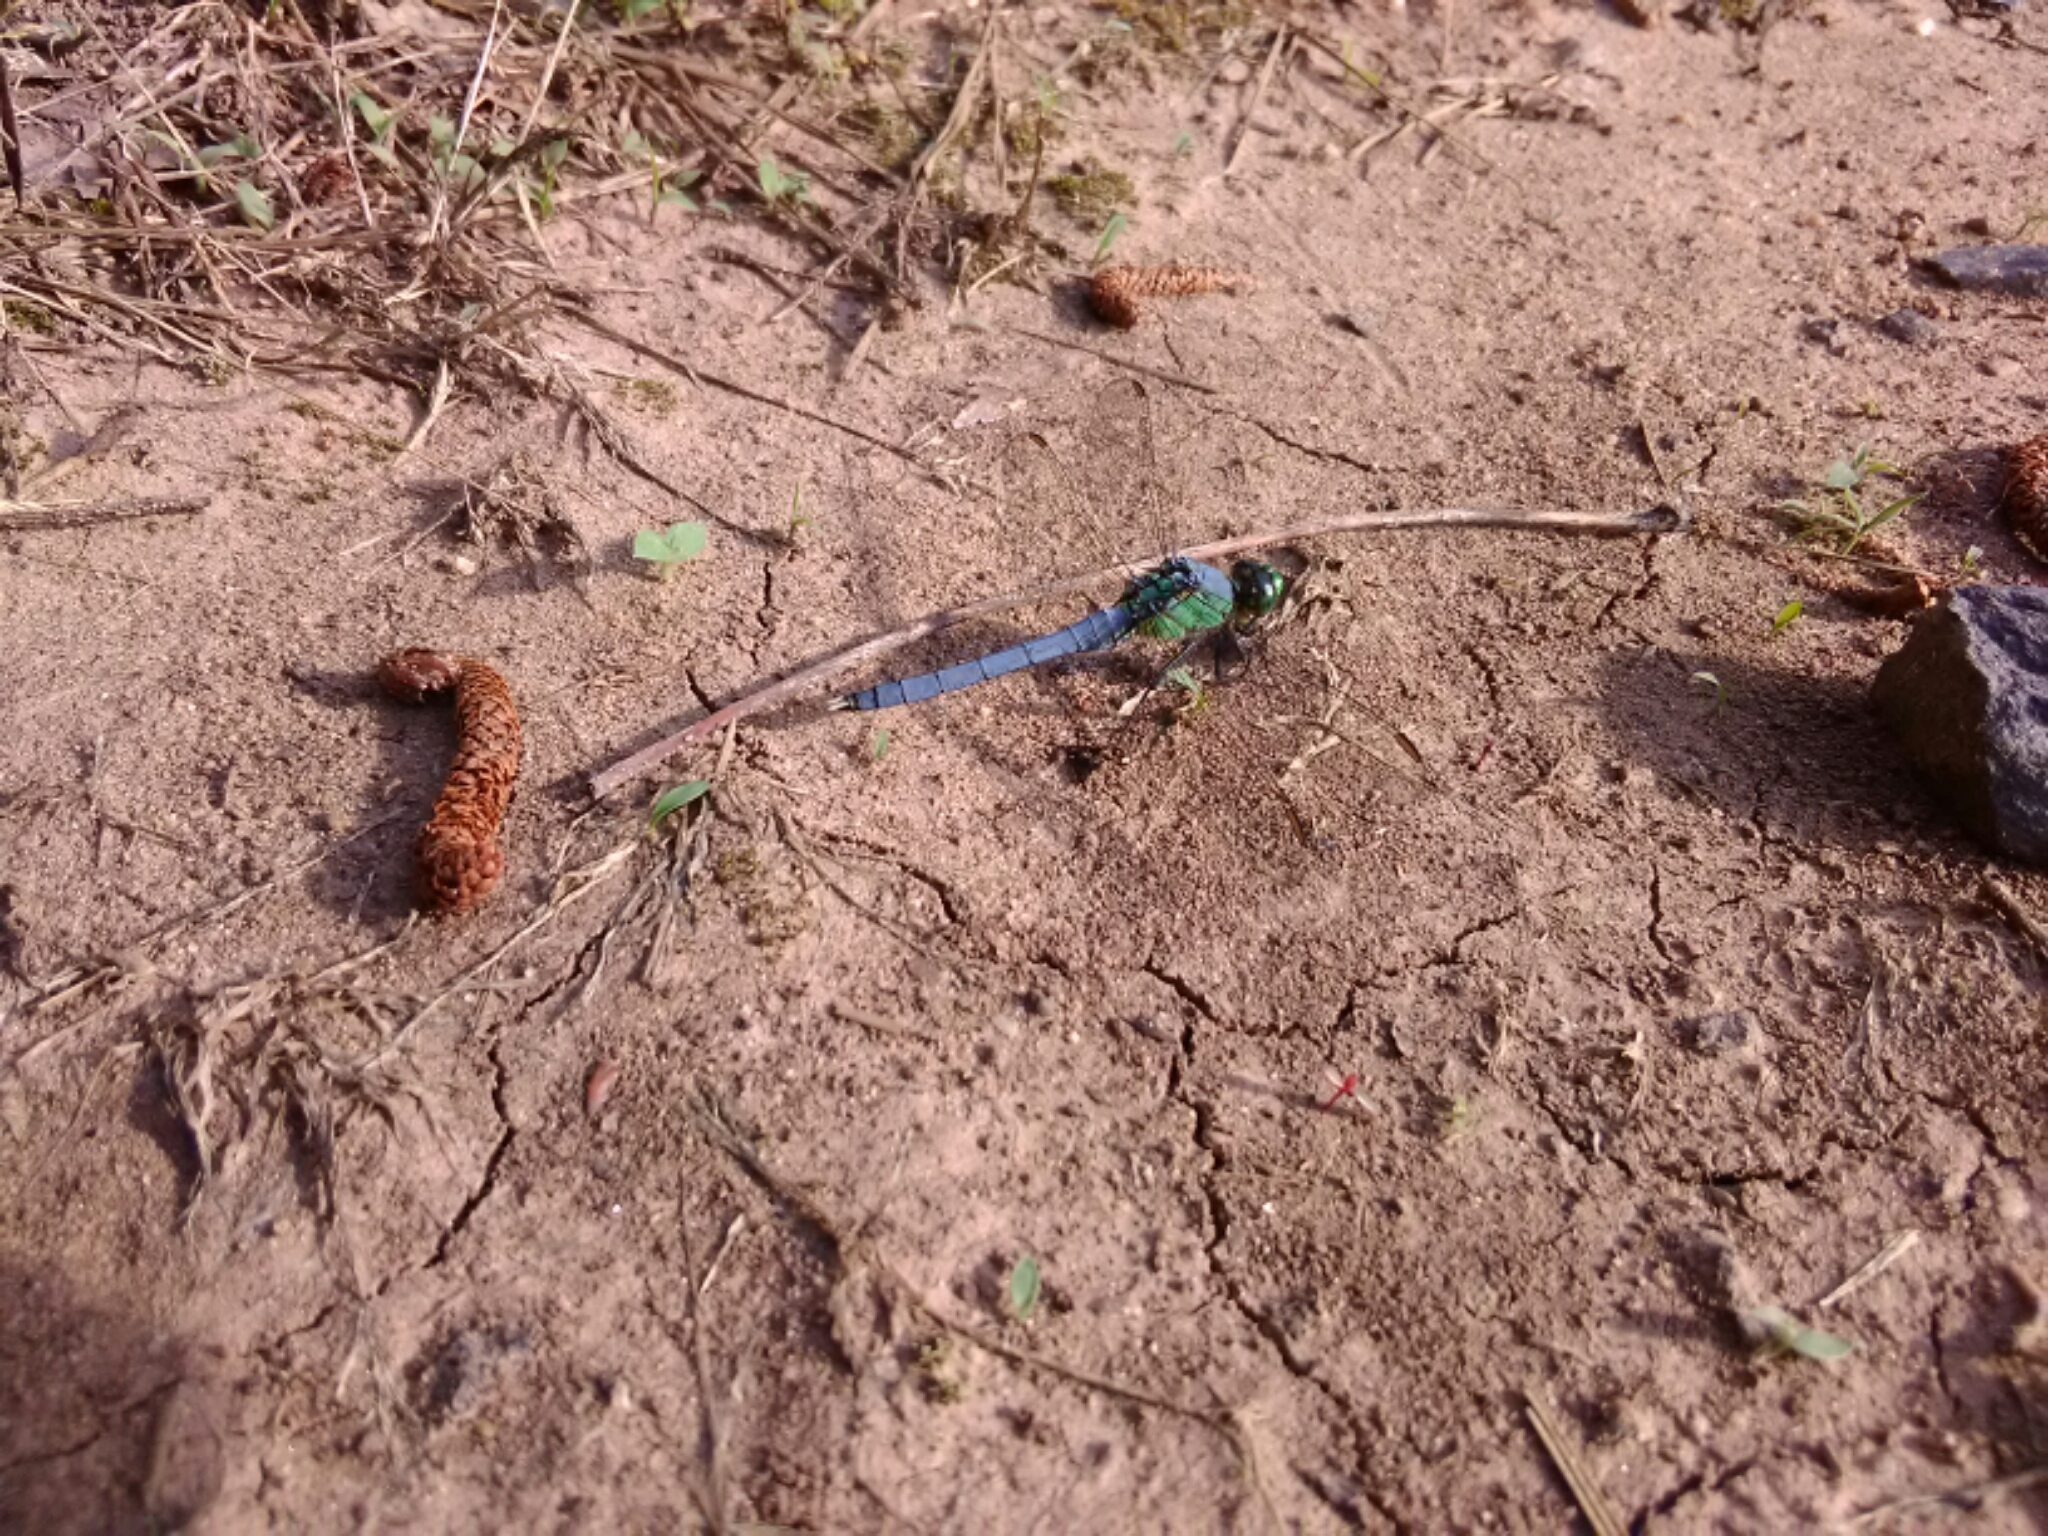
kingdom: Animalia
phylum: Arthropoda
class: Insecta
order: Odonata
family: Libellulidae
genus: Erythemis
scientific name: Erythemis simplicicollis
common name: Eastern pondhawk
